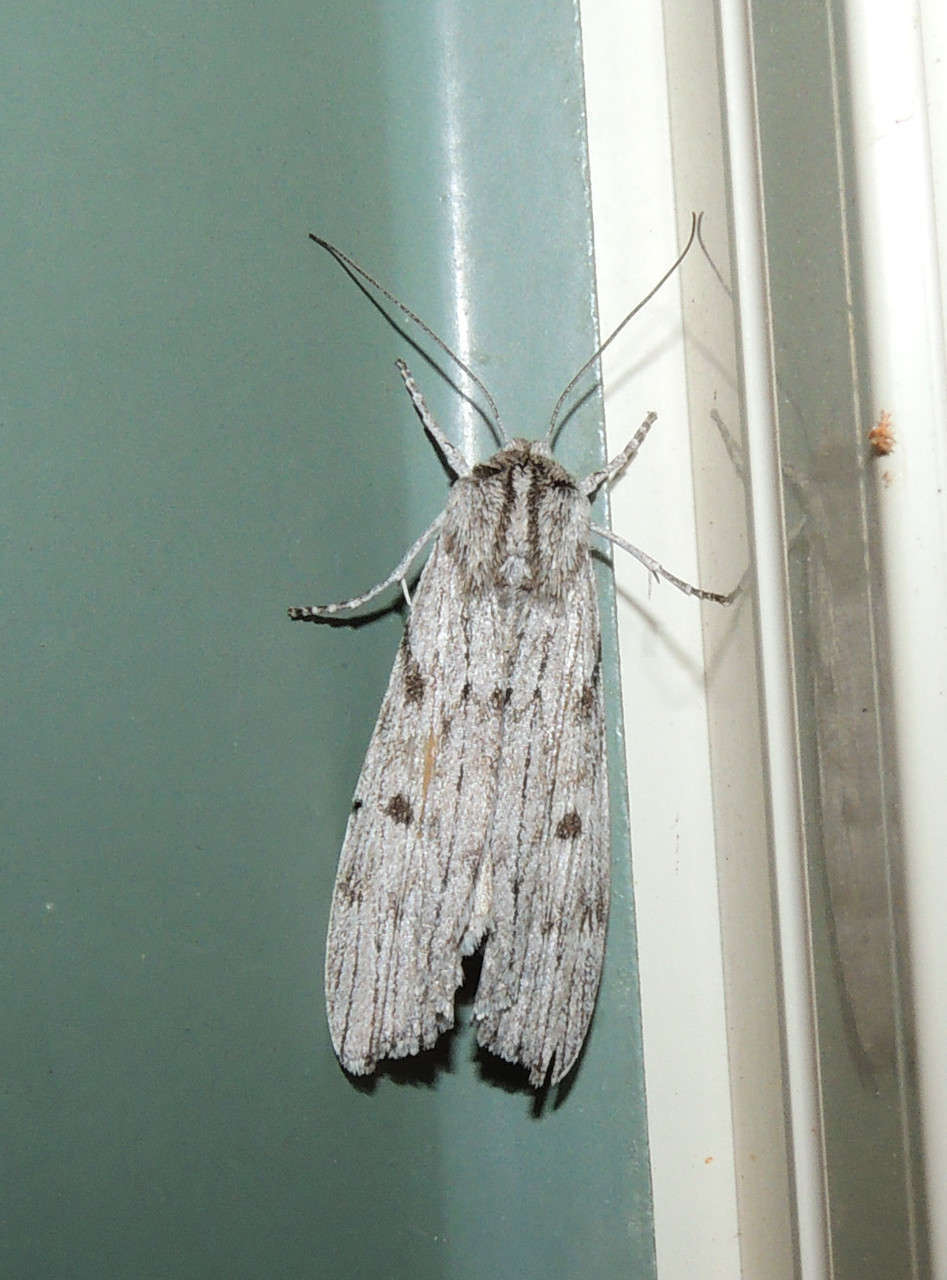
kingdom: Animalia
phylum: Arthropoda
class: Insecta
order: Lepidoptera
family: Geometridae
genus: Capusa
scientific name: Capusa graodes
